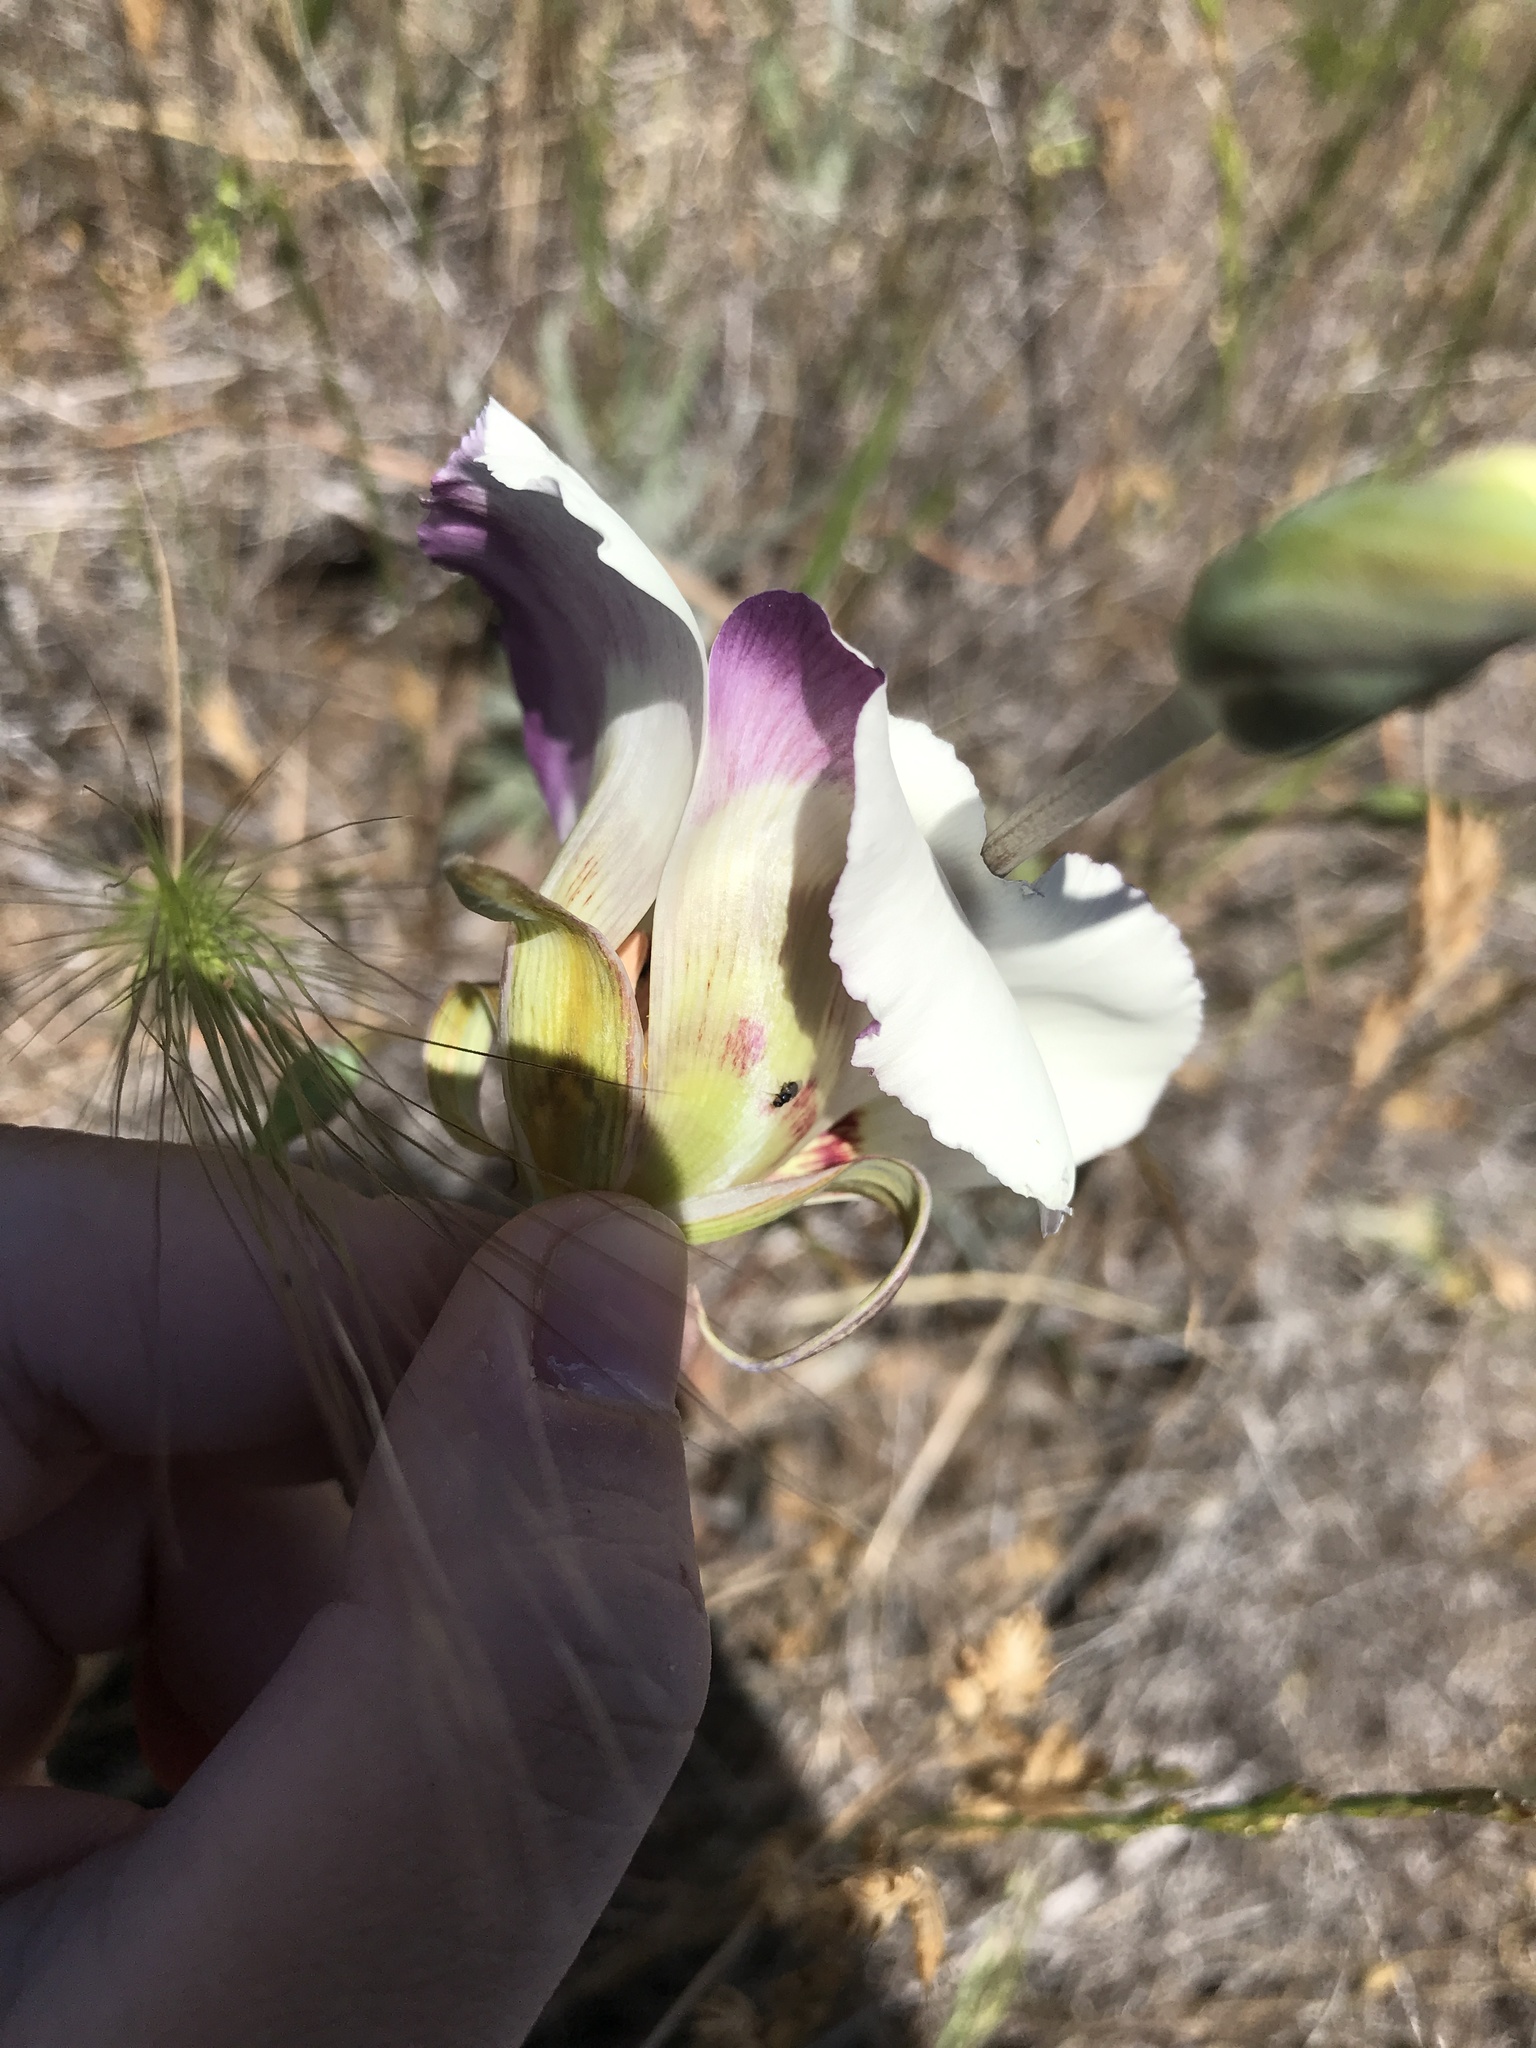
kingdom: Plantae
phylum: Tracheophyta
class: Liliopsida
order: Liliales
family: Liliaceae
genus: Calochortus
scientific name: Calochortus vestae
